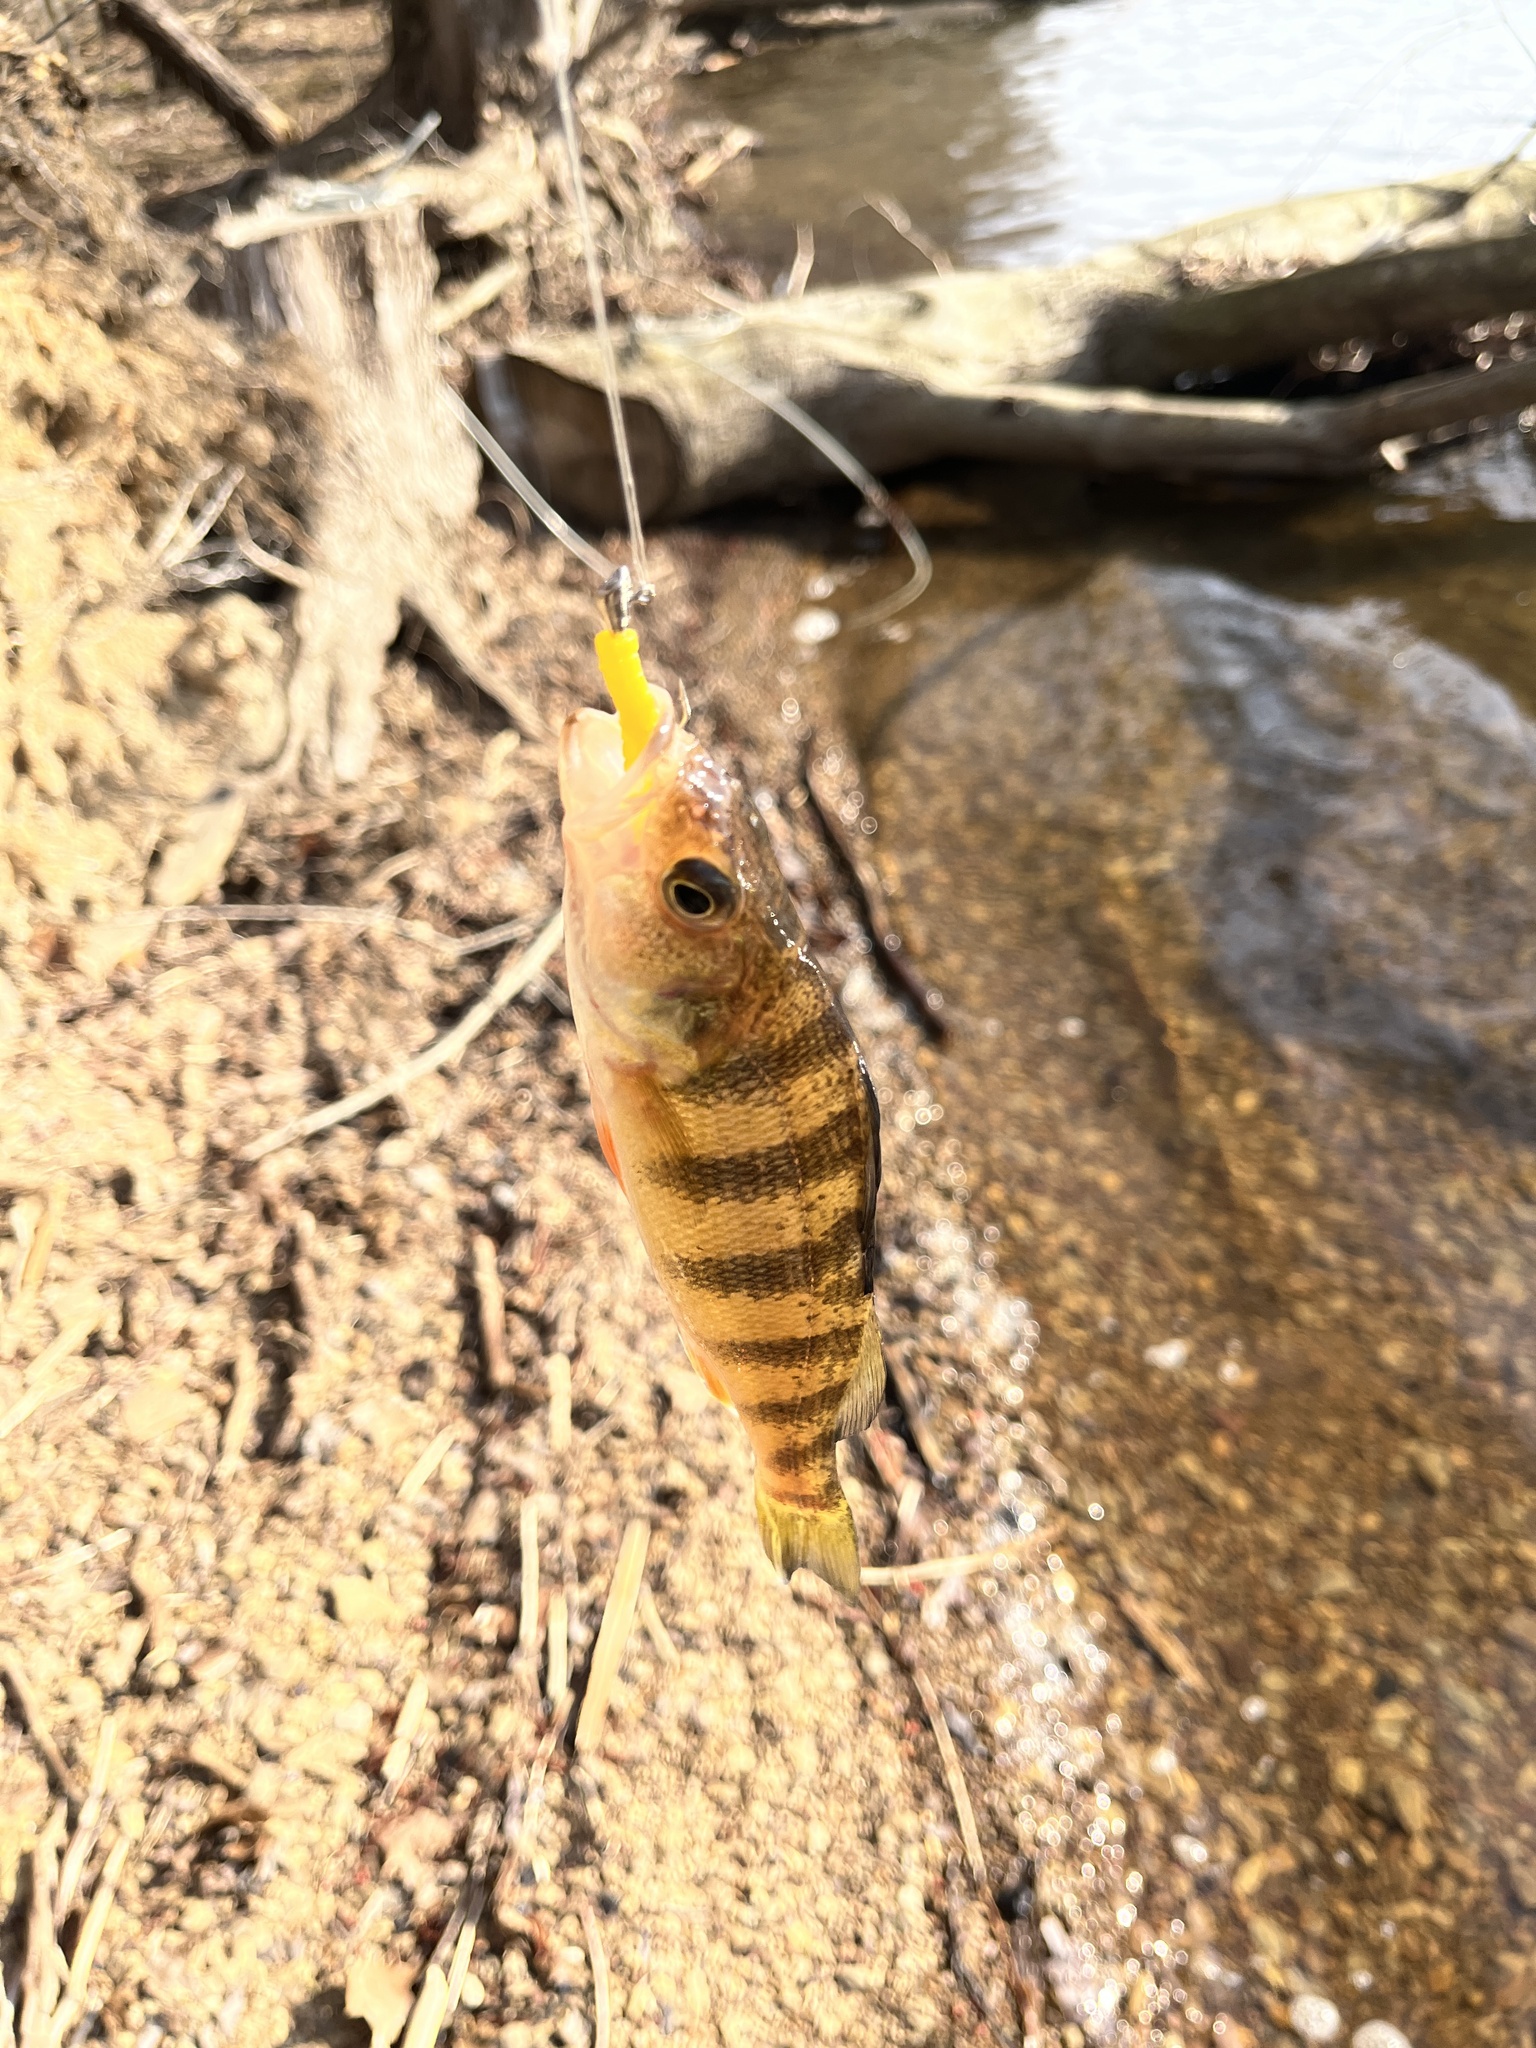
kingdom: Animalia
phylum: Chordata
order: Perciformes
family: Percidae
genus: Perca
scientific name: Perca flavescens
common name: Yellow perch
